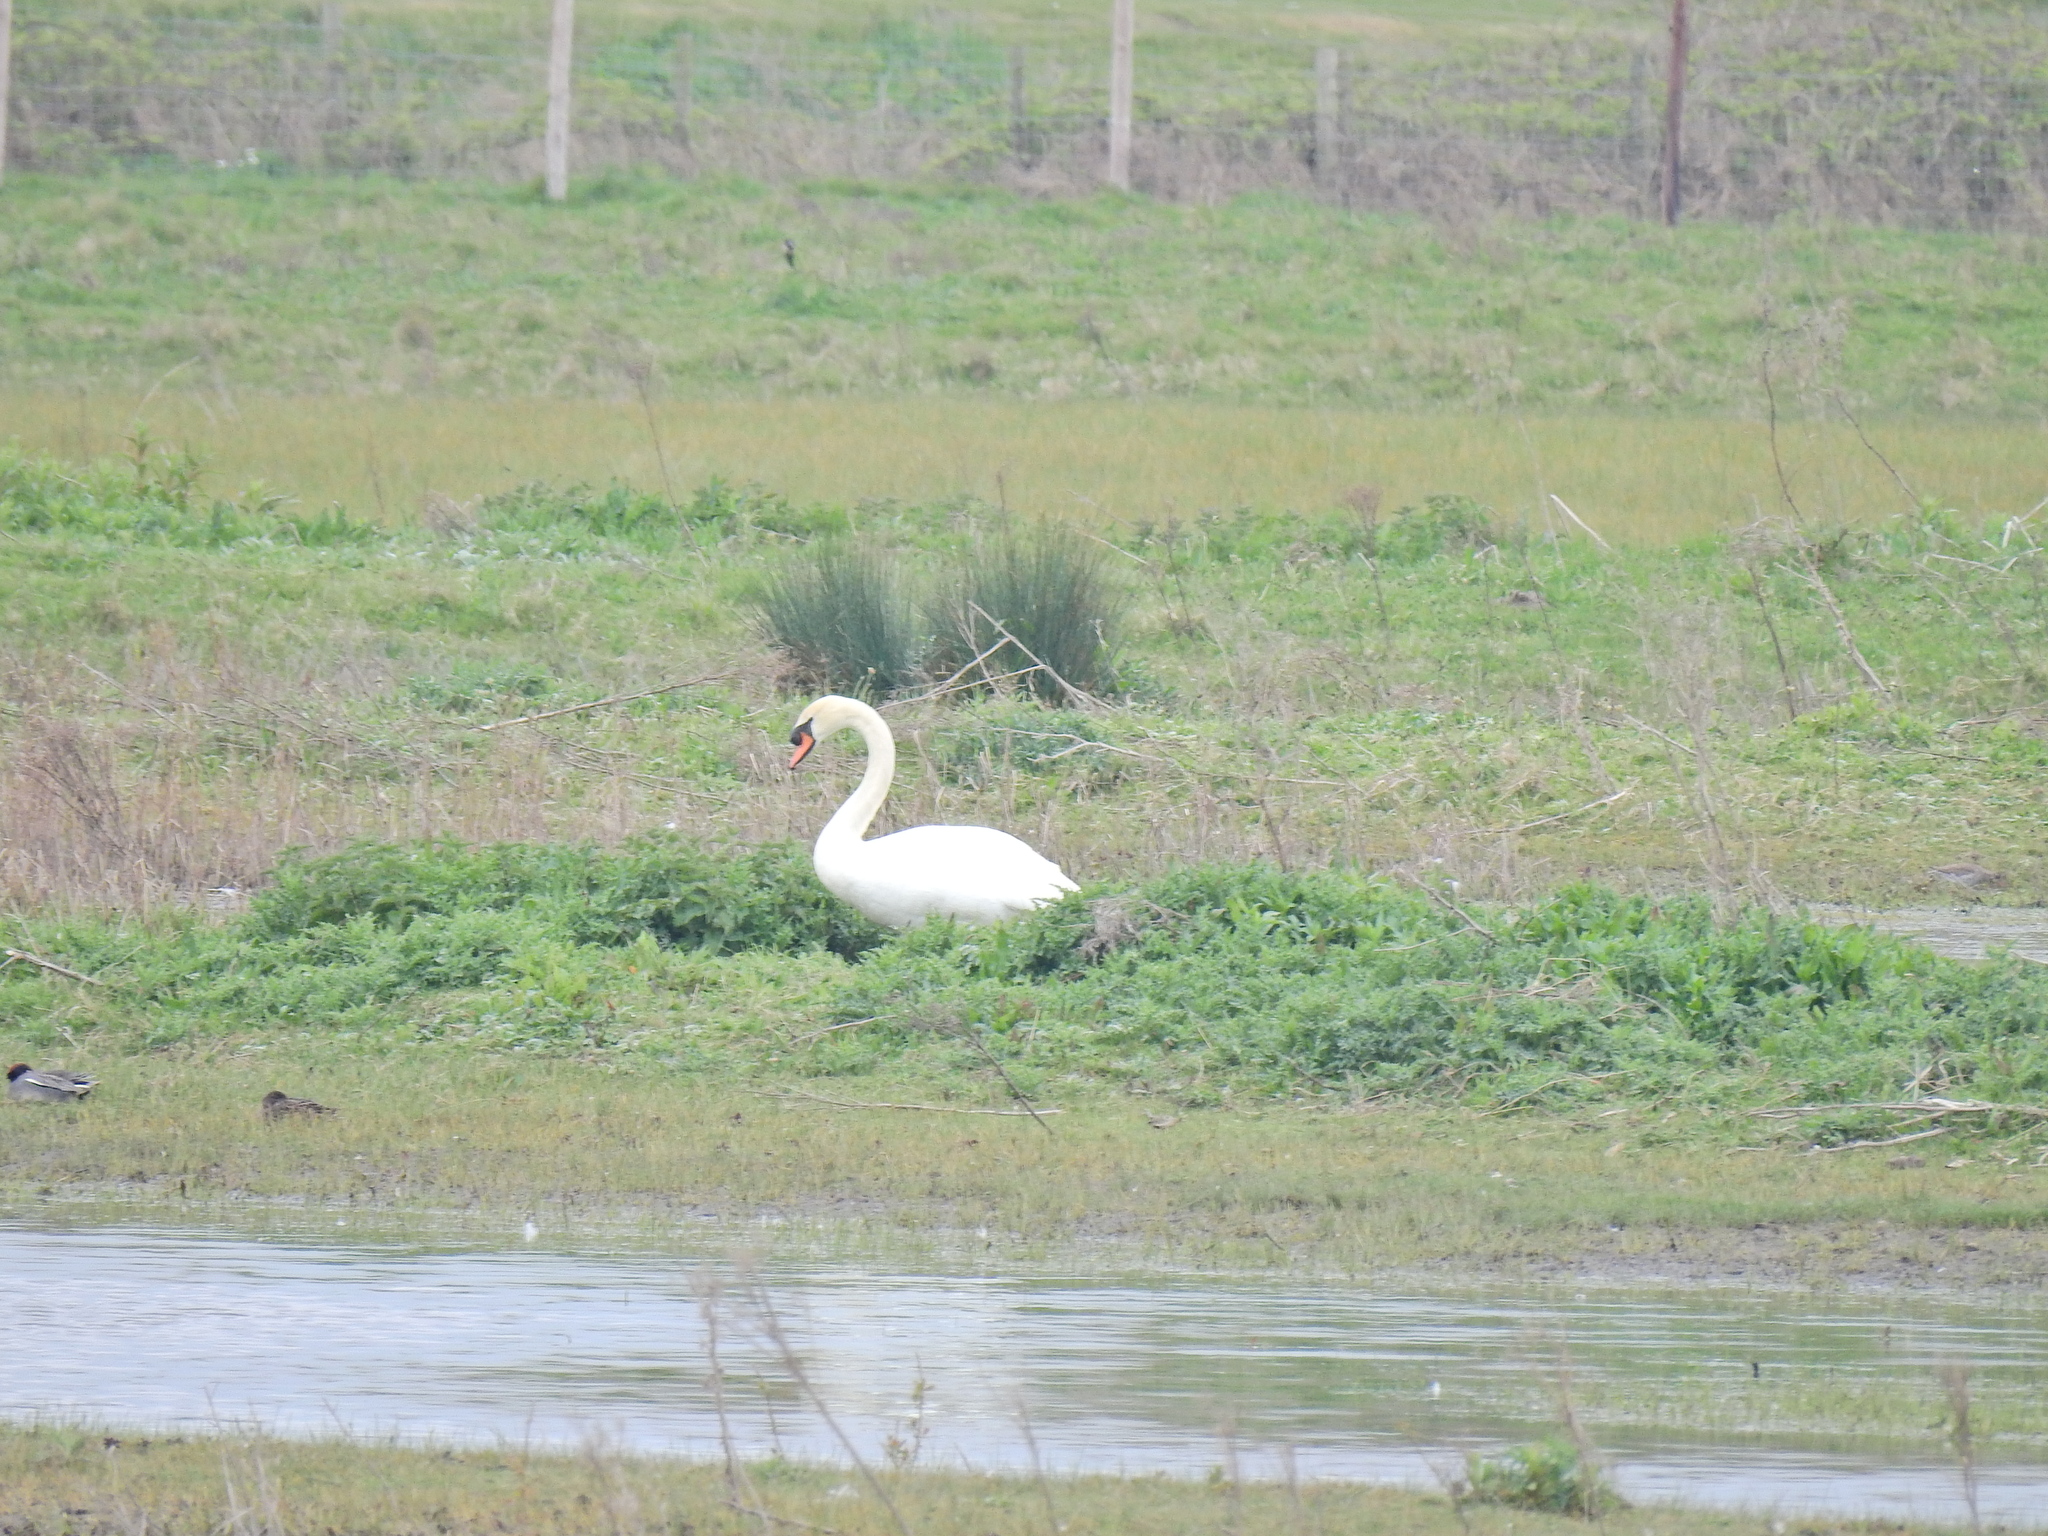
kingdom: Animalia
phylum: Chordata
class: Aves
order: Anseriformes
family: Anatidae
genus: Cygnus
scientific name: Cygnus olor
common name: Mute swan
